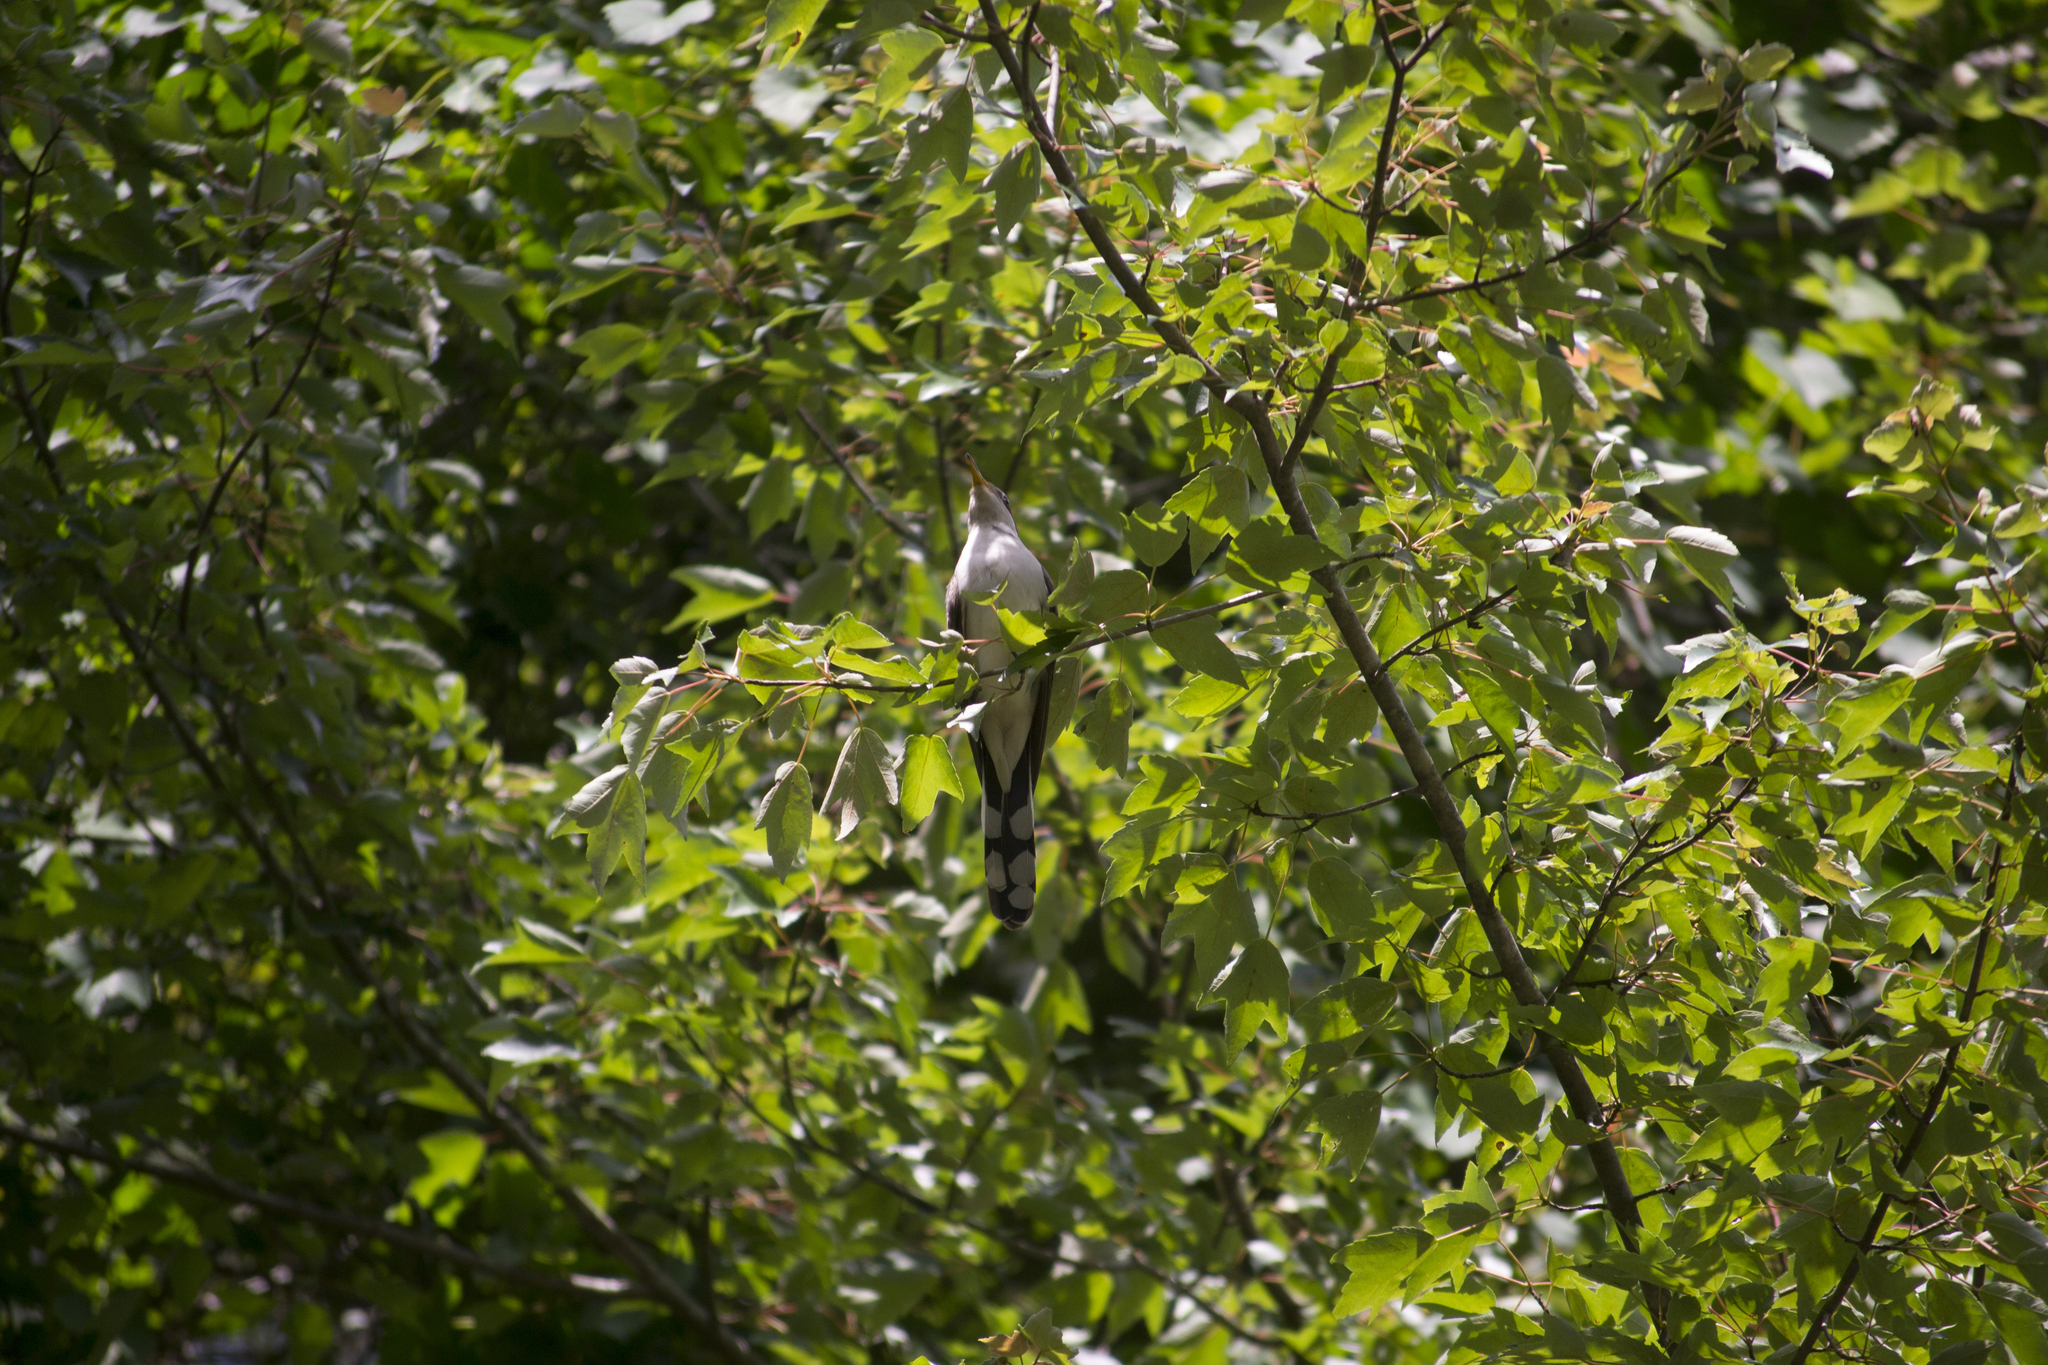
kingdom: Animalia
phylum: Chordata
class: Aves
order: Cuculiformes
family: Cuculidae
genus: Coccyzus
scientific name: Coccyzus americanus
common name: Yellow-billed cuckoo
